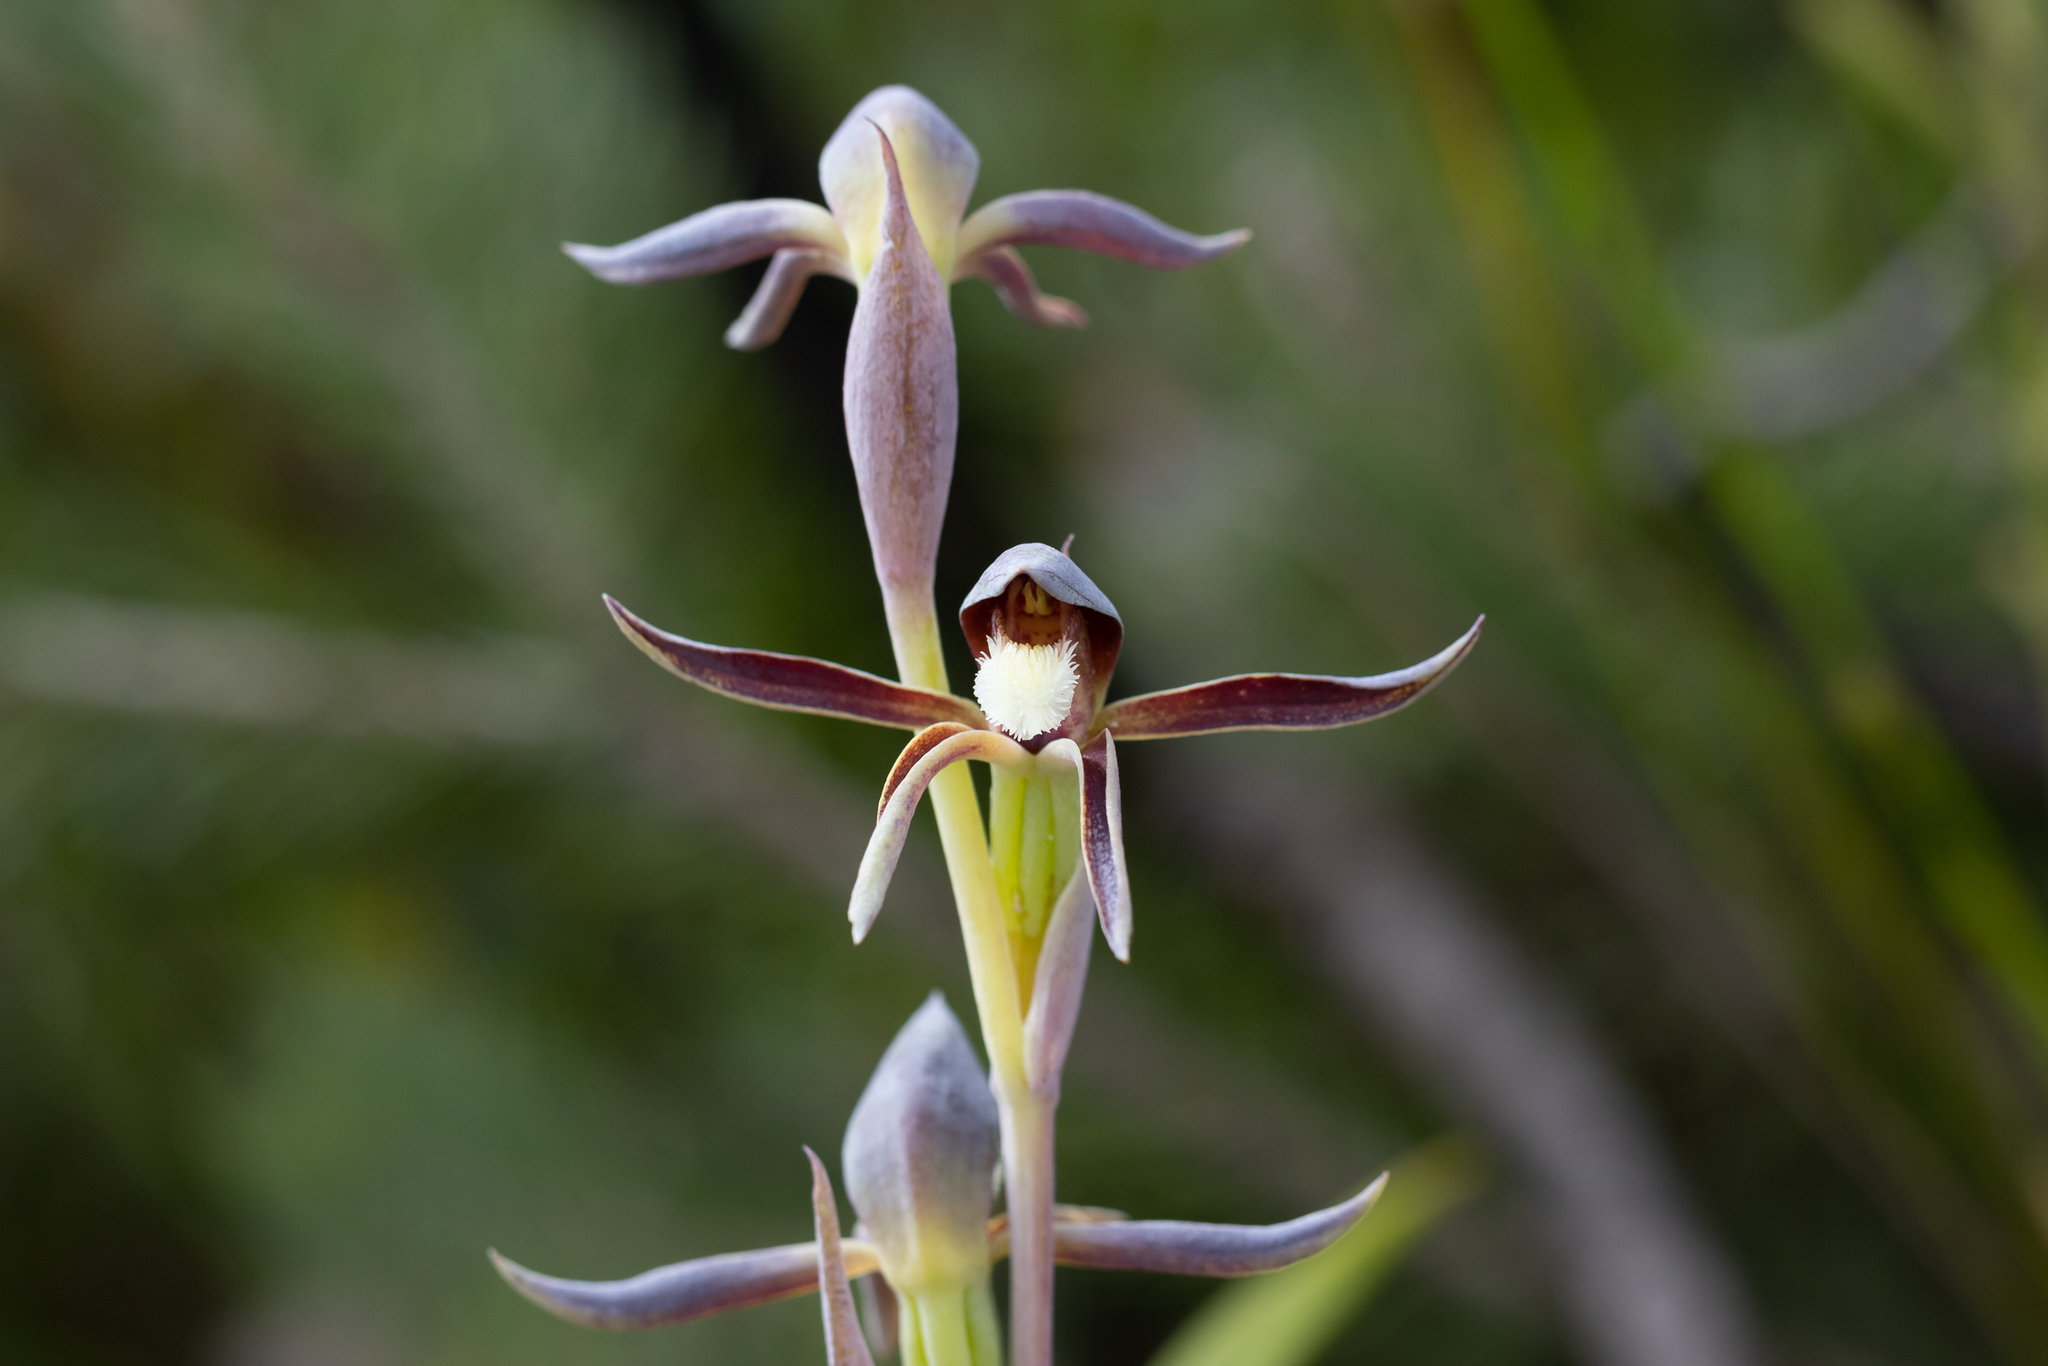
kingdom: Plantae
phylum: Tracheophyta
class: Liliopsida
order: Asparagales
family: Orchidaceae
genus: Lyperanthus
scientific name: Lyperanthus serratus
